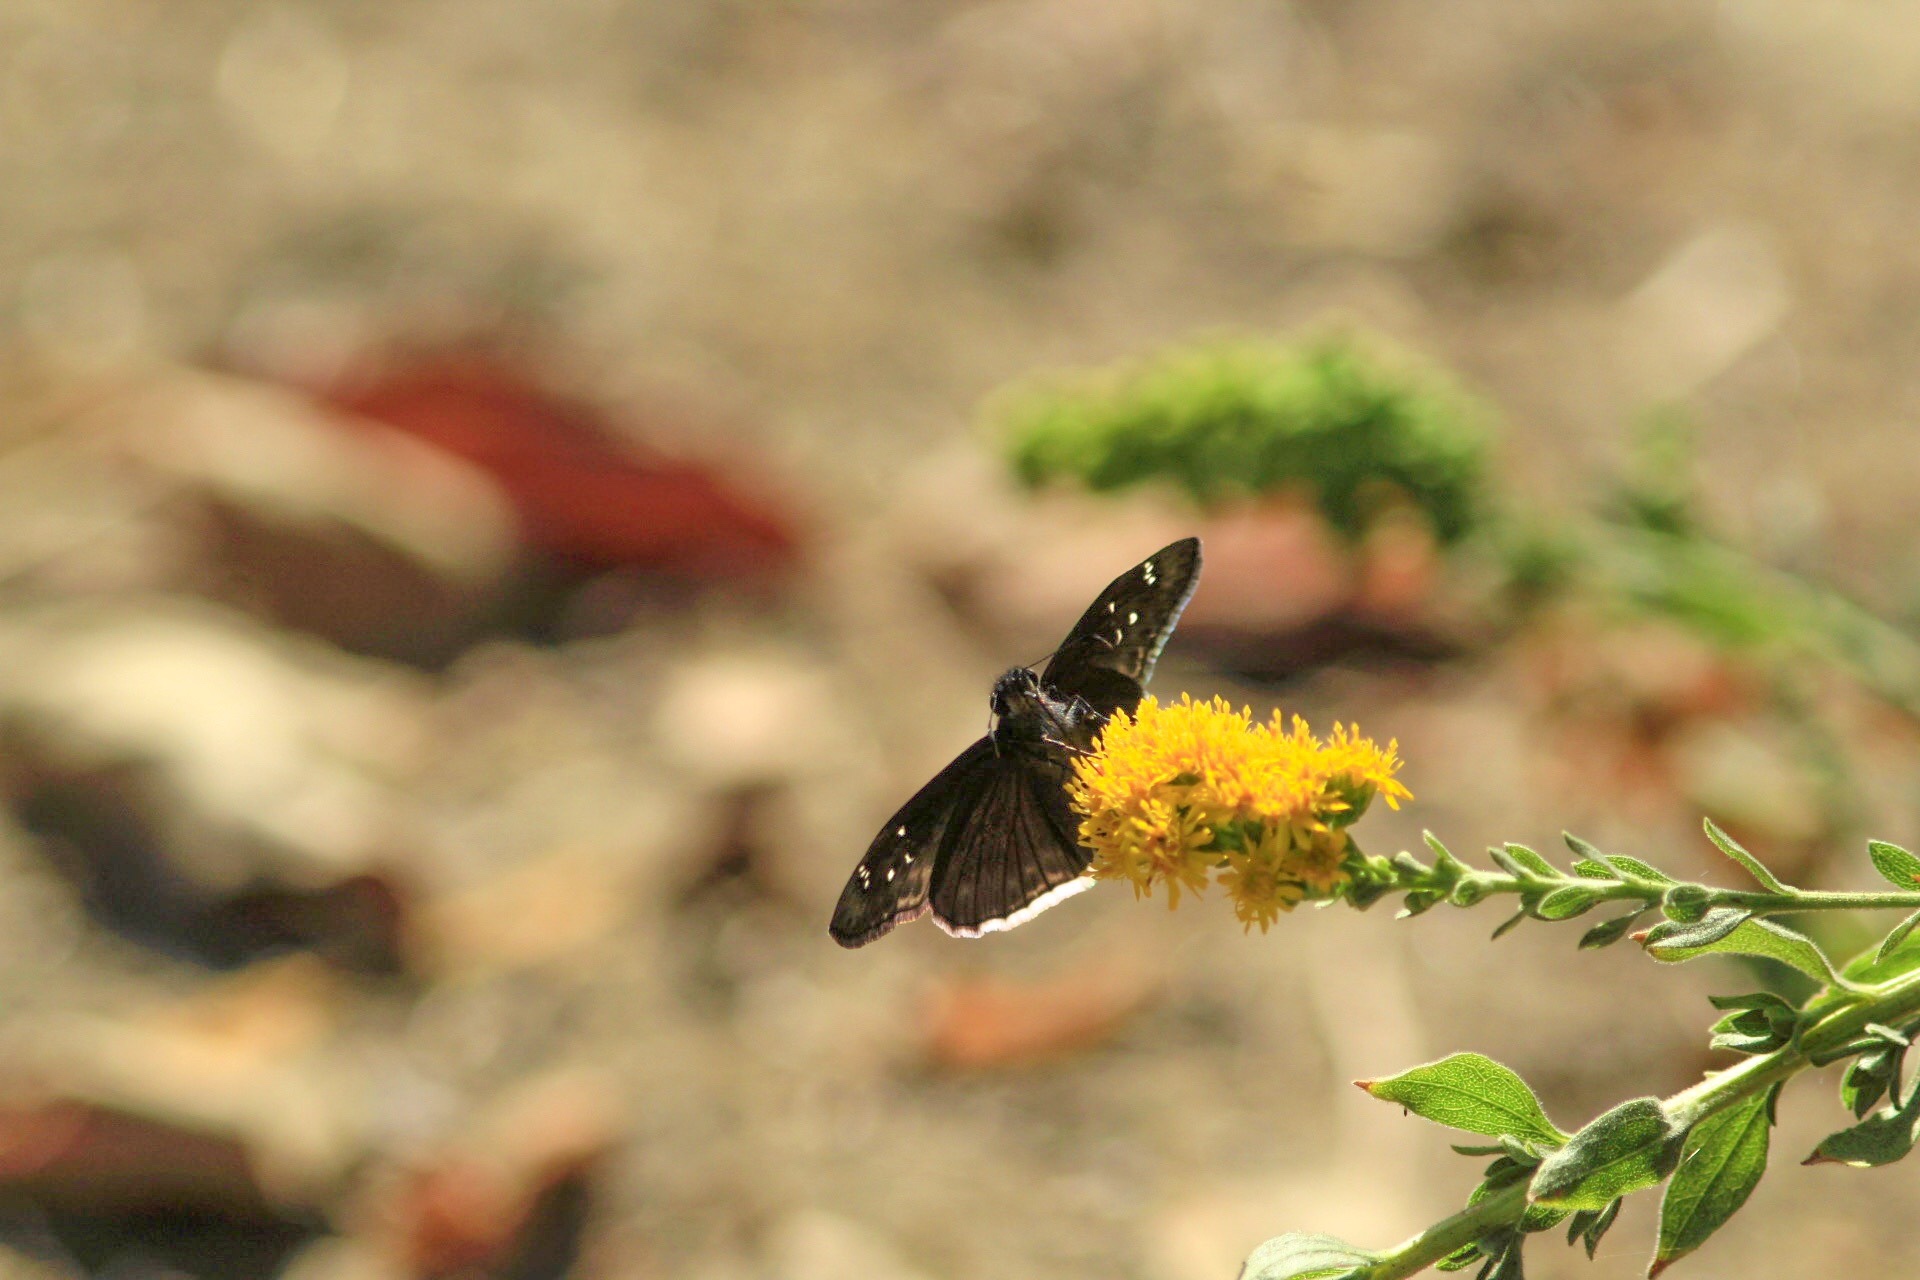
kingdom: Animalia
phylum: Arthropoda
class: Insecta
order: Lepidoptera
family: Hesperiidae
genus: Erynnis
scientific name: Erynnis funeralis
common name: Funereal duskywing
